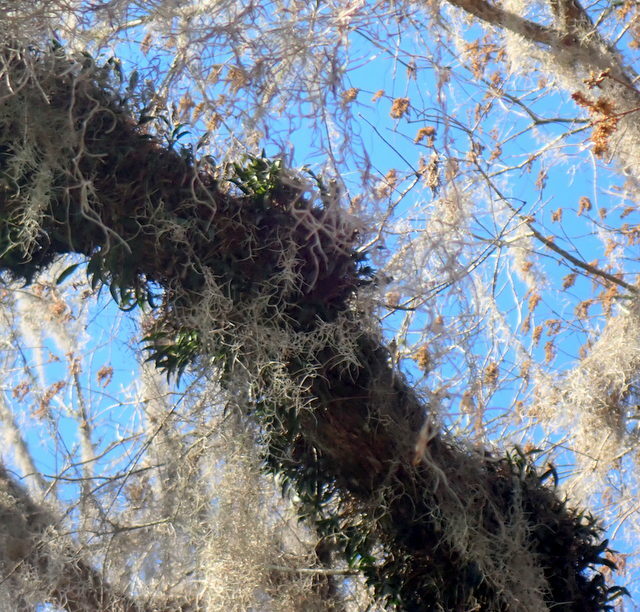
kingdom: Plantae
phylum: Tracheophyta
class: Liliopsida
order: Asparagales
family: Orchidaceae
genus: Epidendrum
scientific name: Epidendrum conopseum
